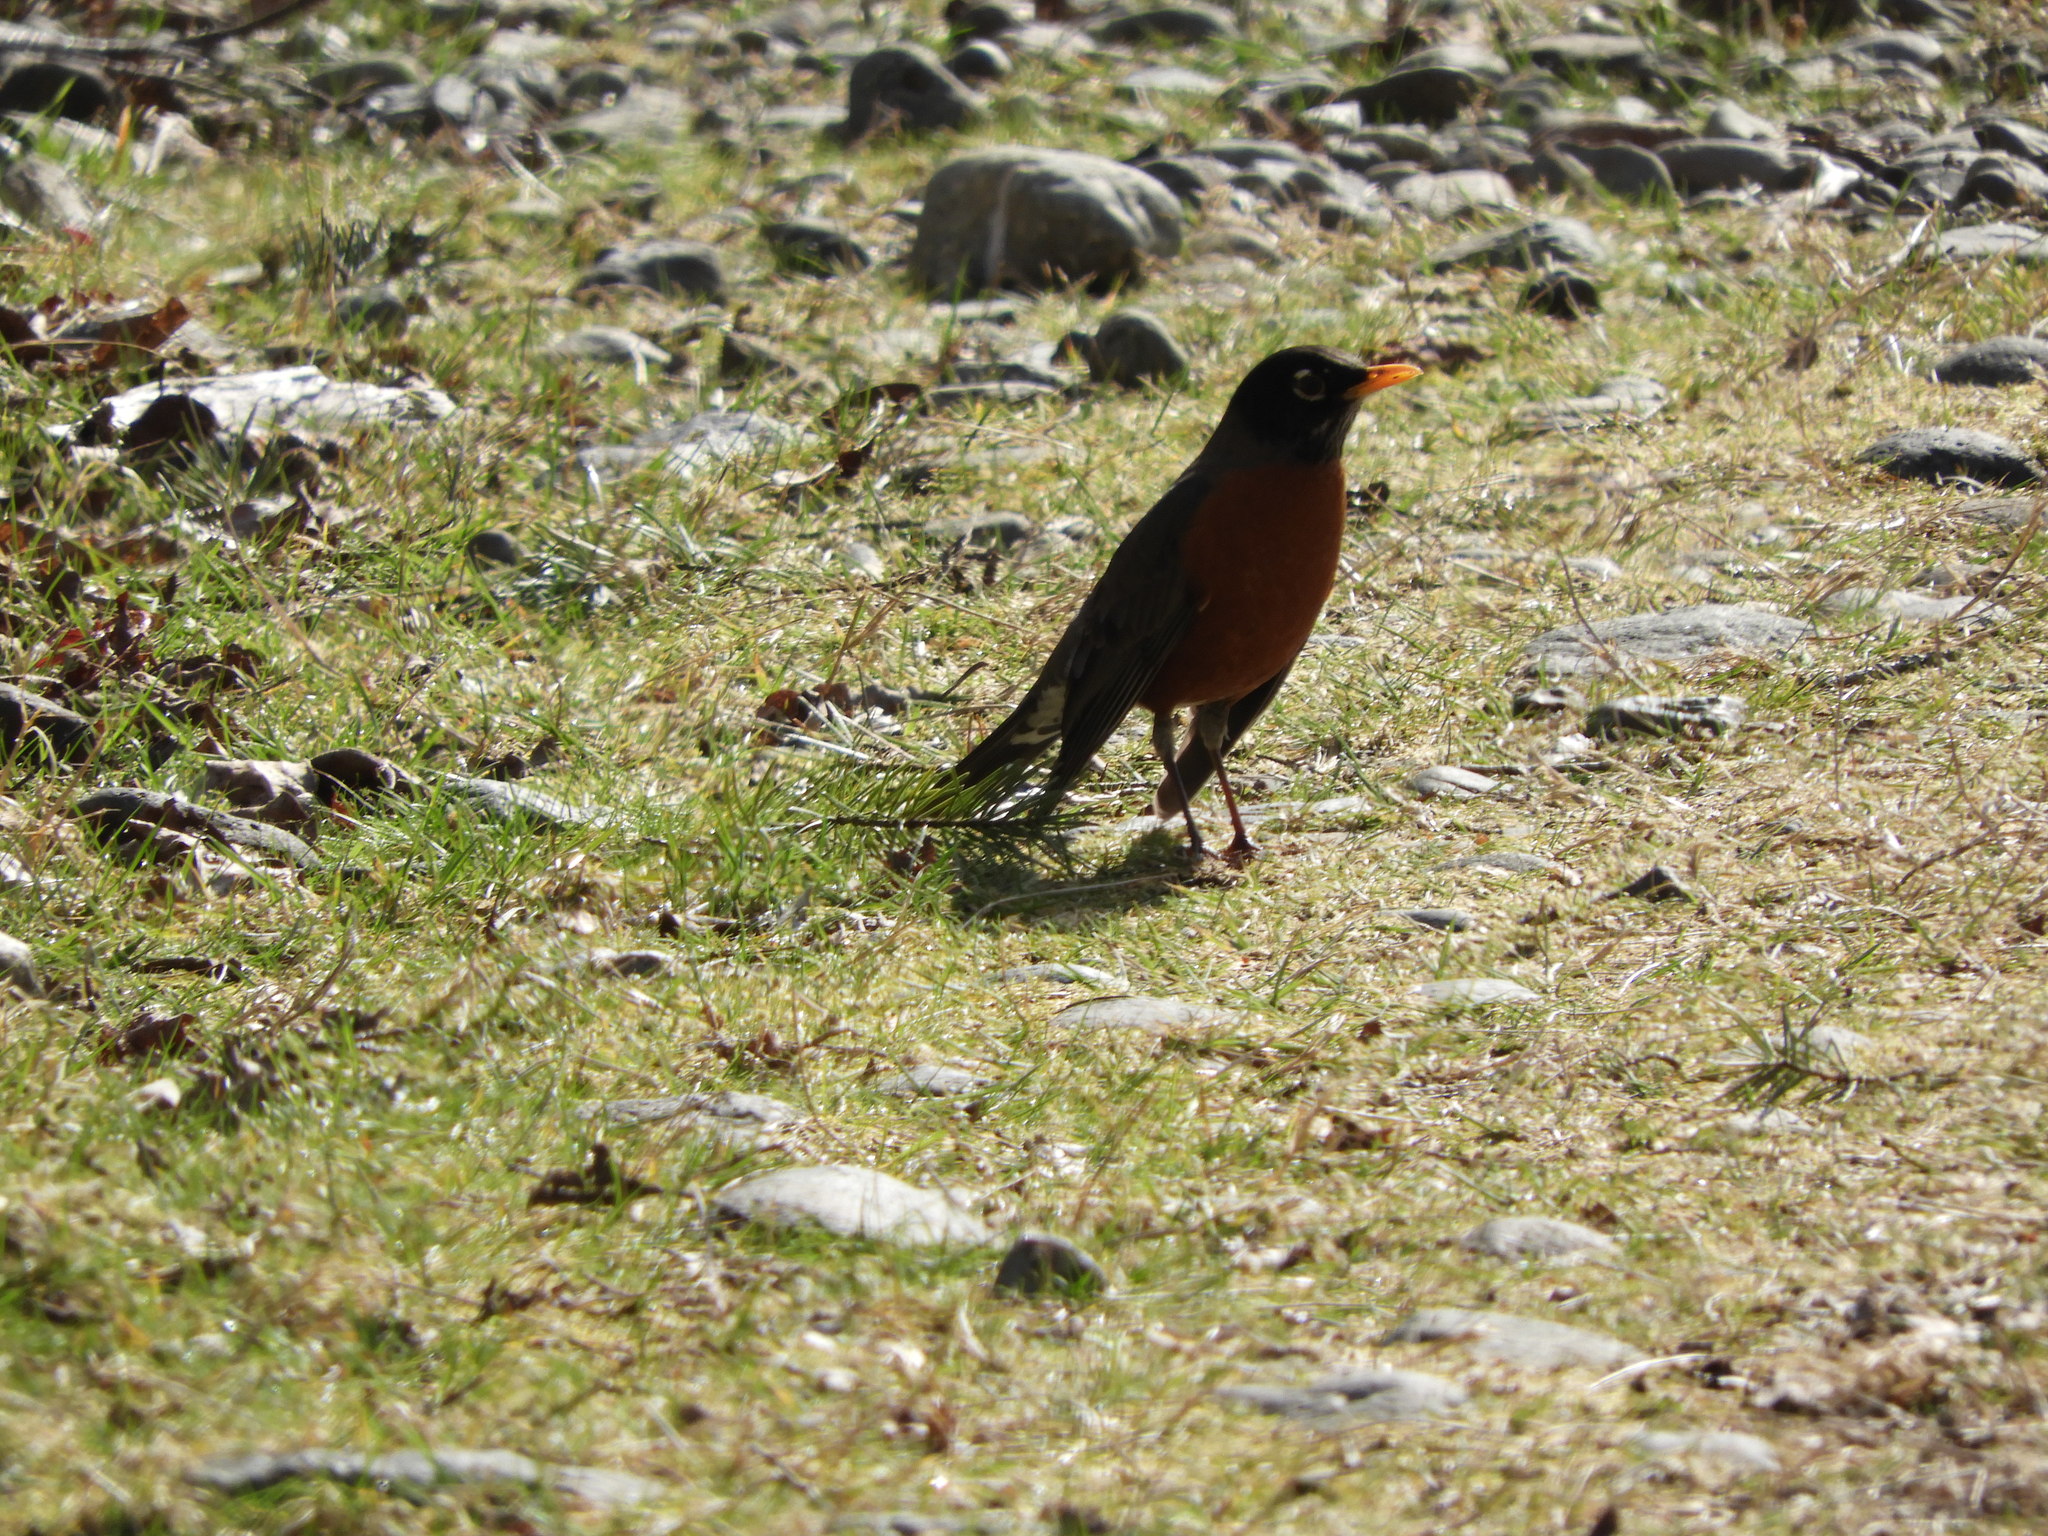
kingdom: Animalia
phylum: Chordata
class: Aves
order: Passeriformes
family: Turdidae
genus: Turdus
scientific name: Turdus migratorius
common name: American robin
